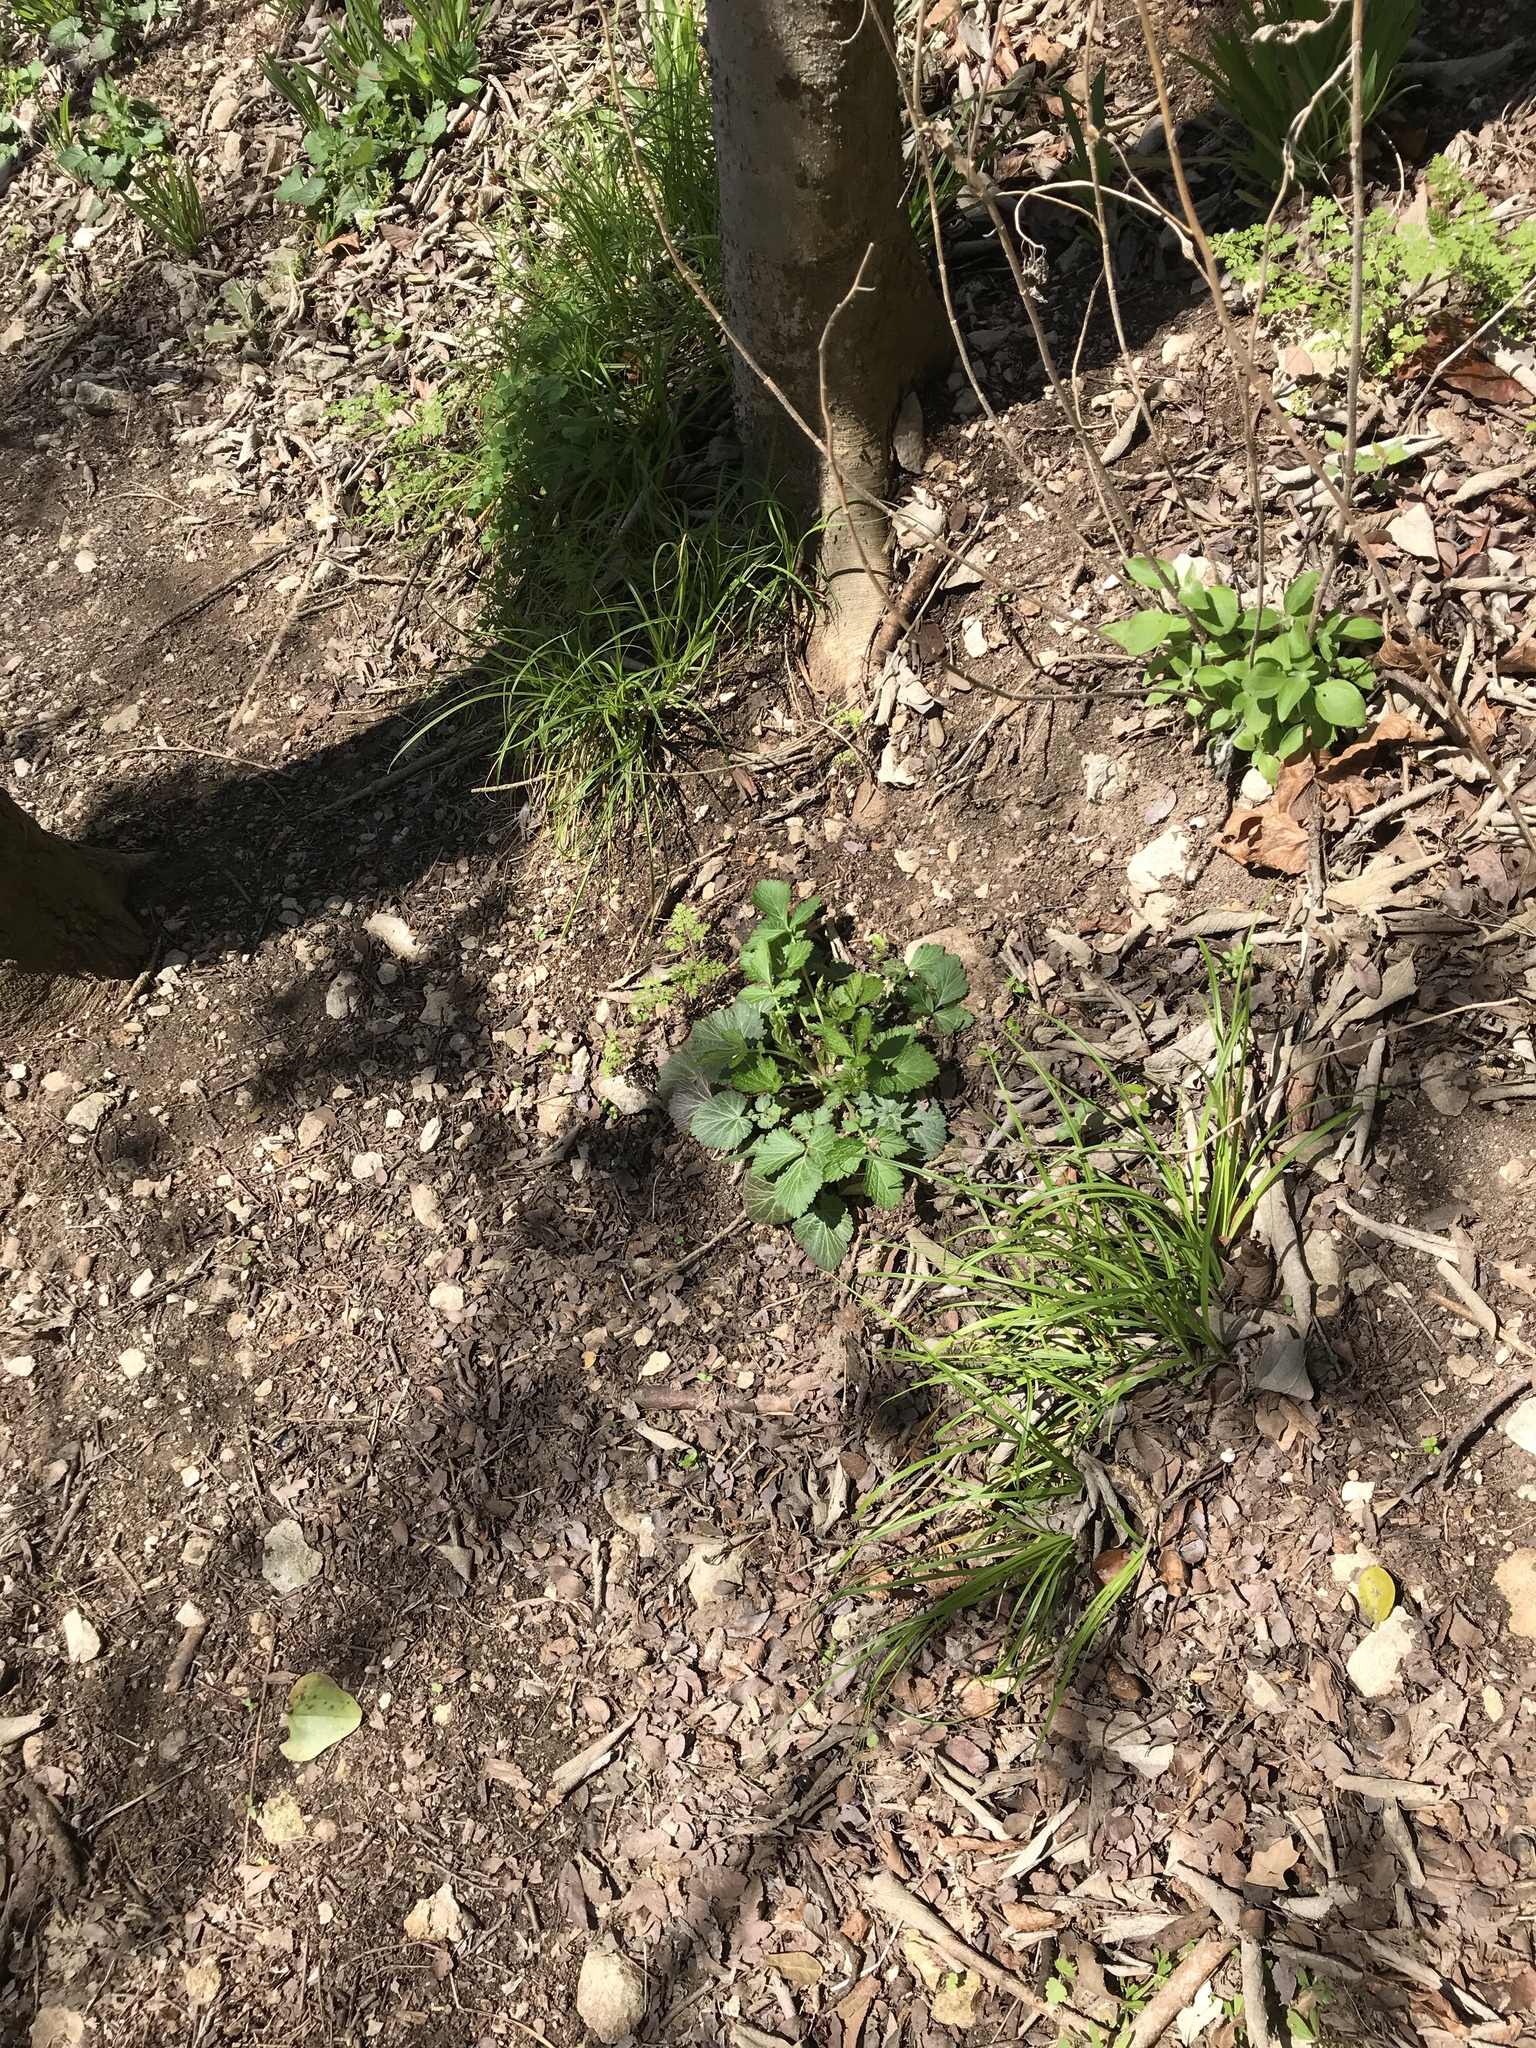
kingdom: Plantae
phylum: Tracheophyta
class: Magnoliopsida
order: Rosales
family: Rosaceae
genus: Geum
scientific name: Geum canadense
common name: White avens
